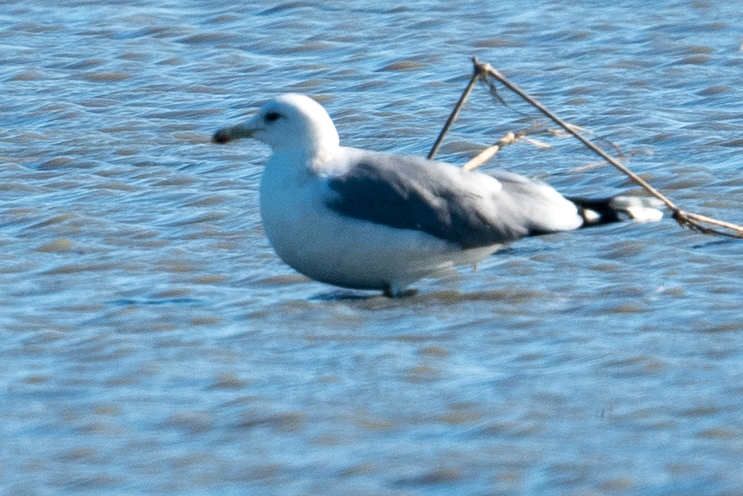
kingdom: Animalia
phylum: Chordata
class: Aves
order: Charadriiformes
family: Laridae
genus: Larus
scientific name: Larus californicus
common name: California gull
